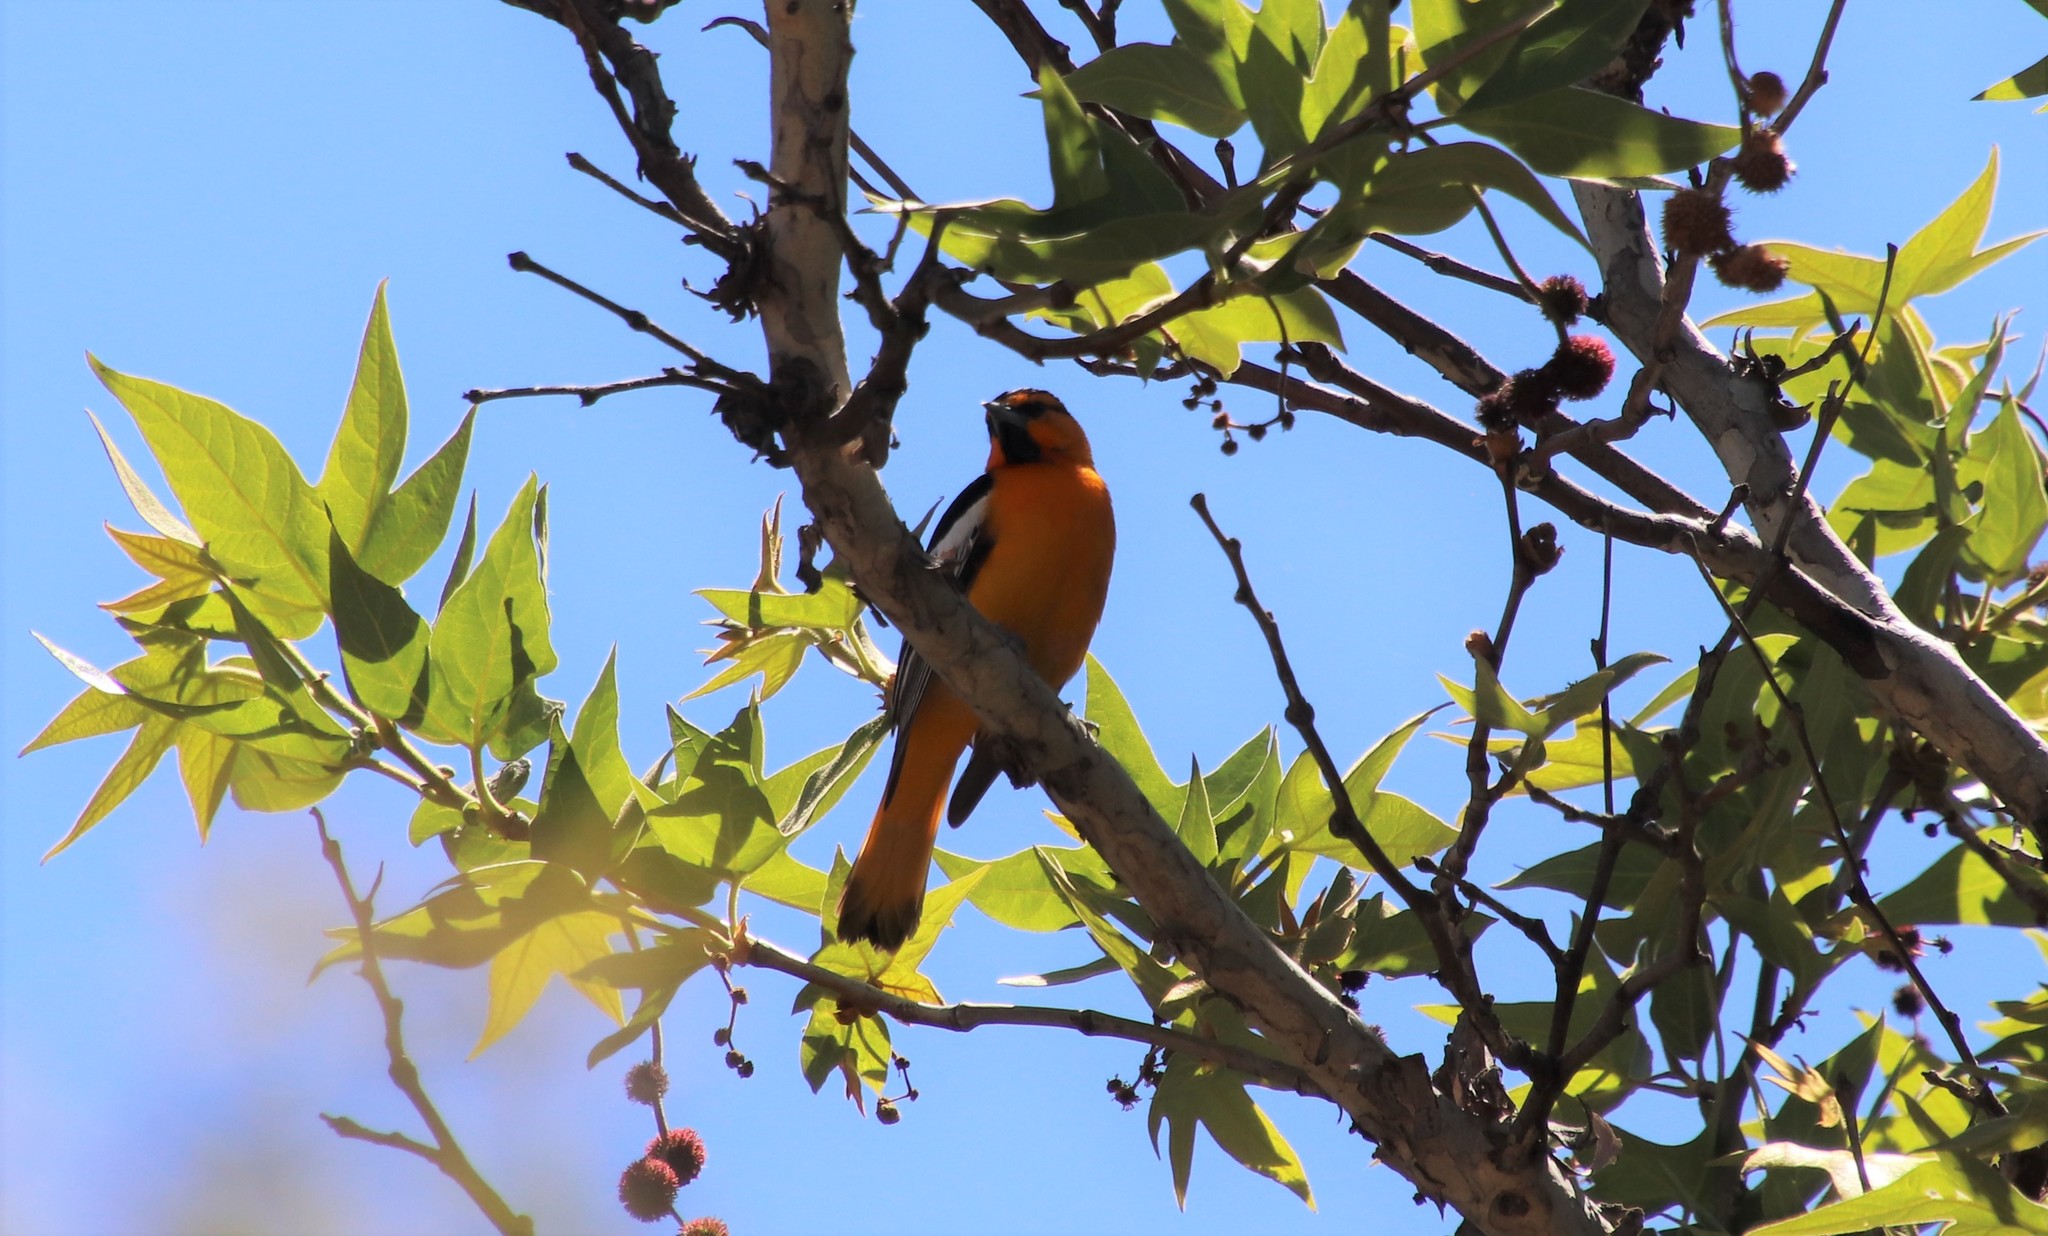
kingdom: Animalia
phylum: Chordata
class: Aves
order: Passeriformes
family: Icteridae
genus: Icterus
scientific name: Icterus bullockii
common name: Bullock's oriole
